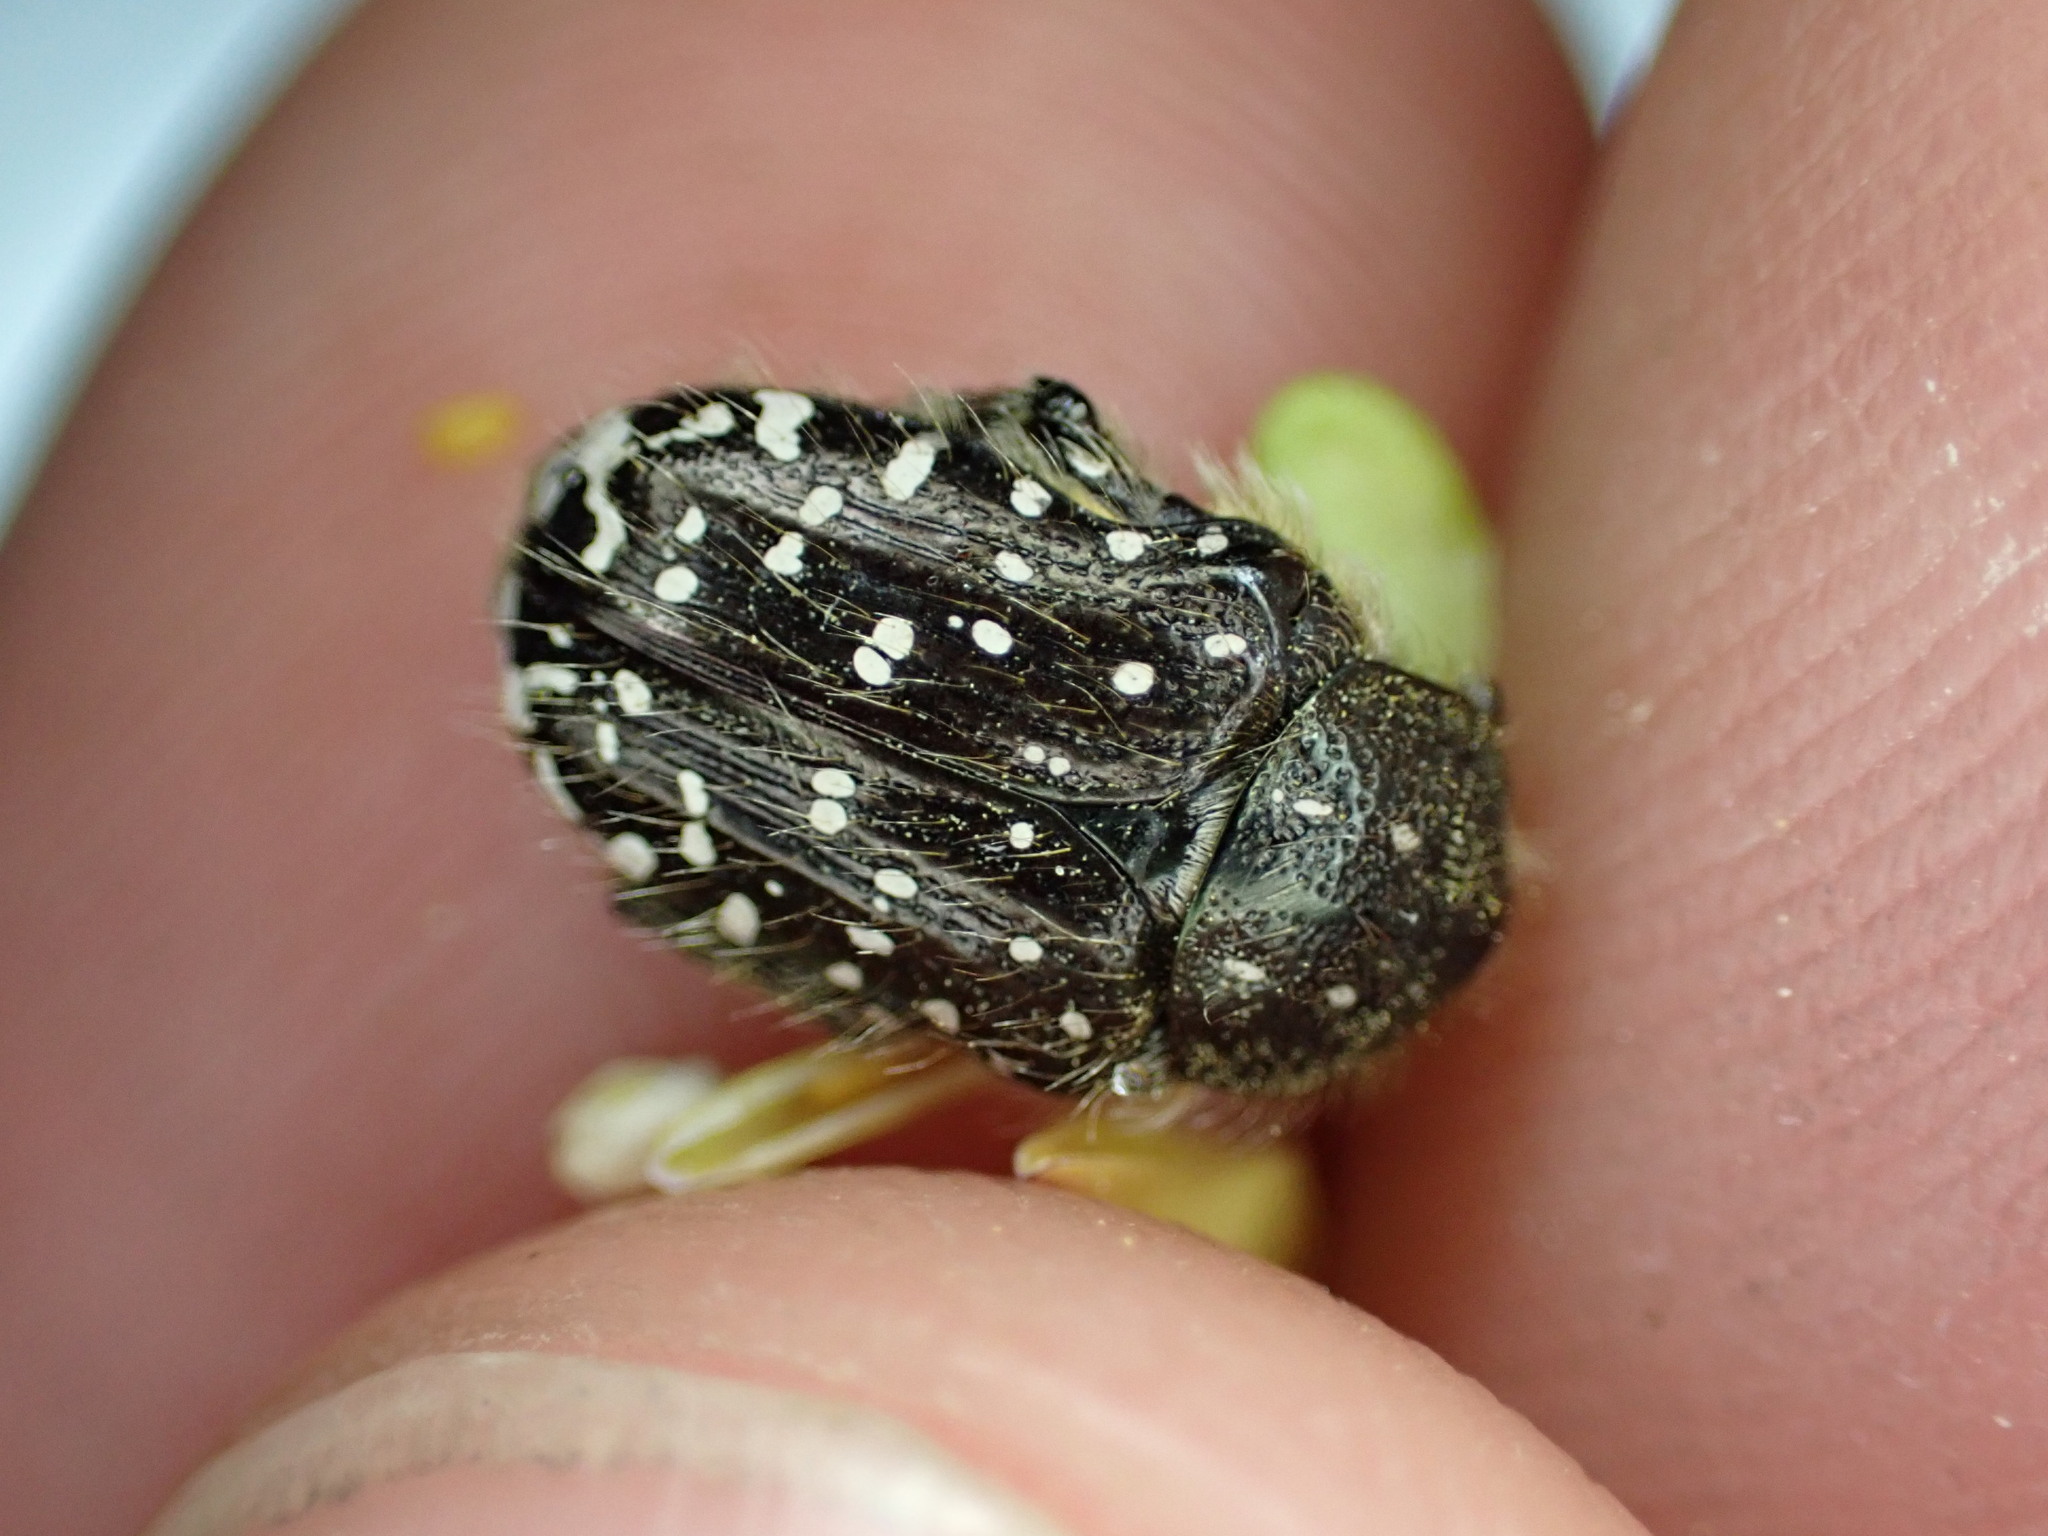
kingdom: Animalia
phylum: Arthropoda
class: Insecta
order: Coleoptera
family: Scarabaeidae
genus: Oxythyrea
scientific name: Oxythyrea funesta
